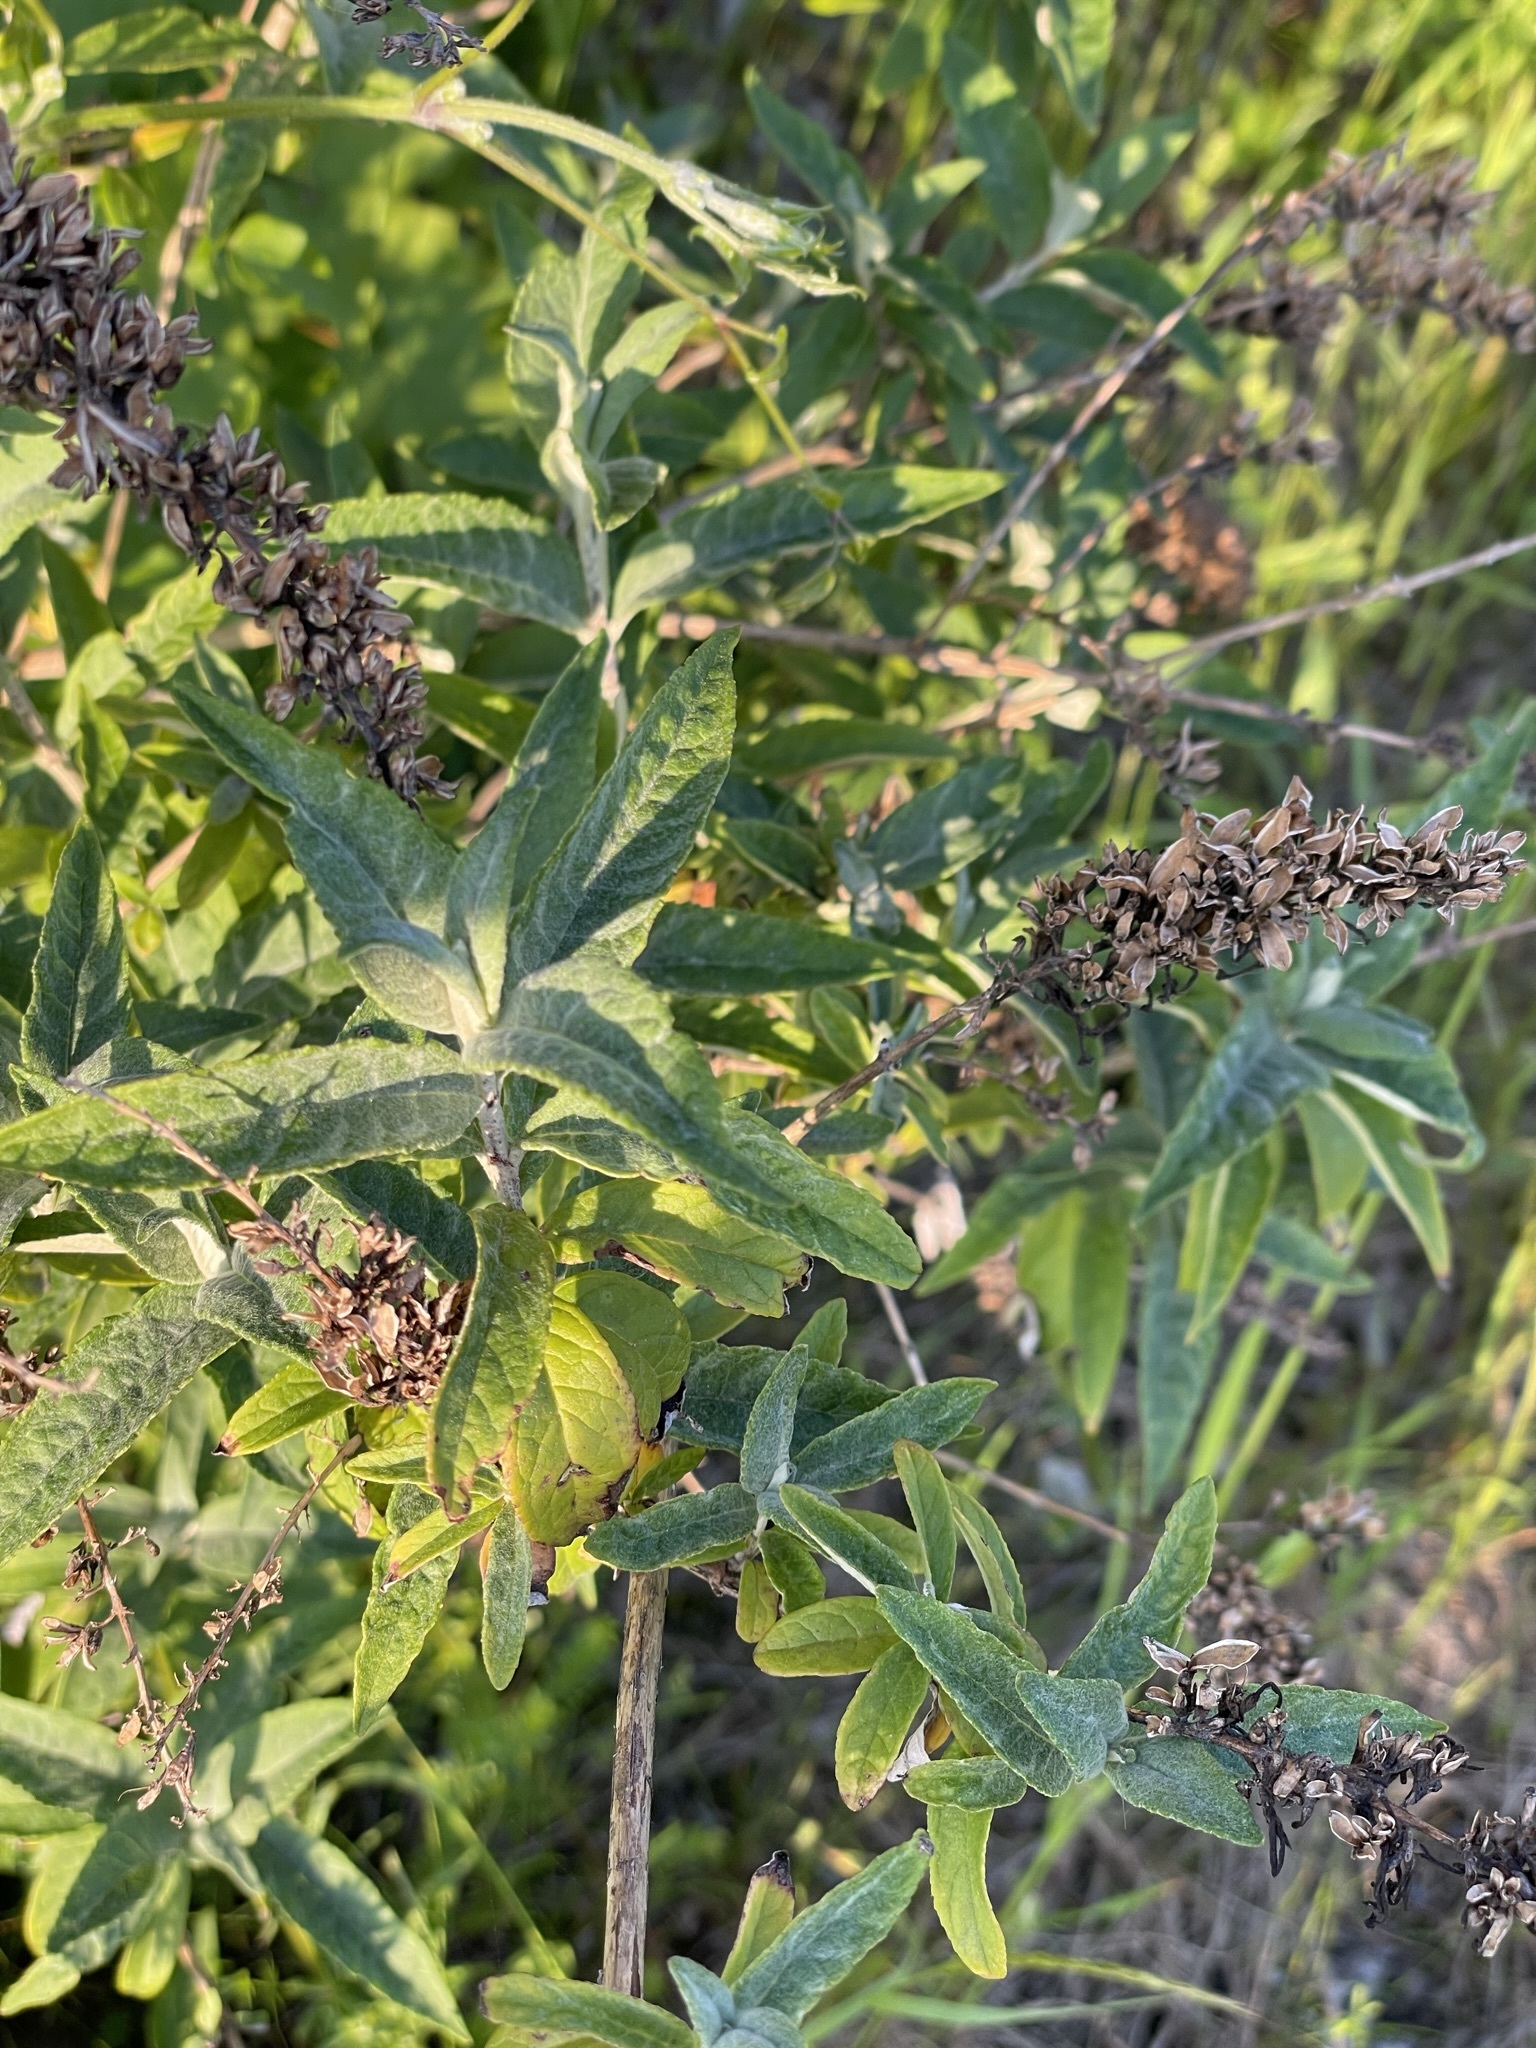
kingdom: Plantae
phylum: Tracheophyta
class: Magnoliopsida
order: Lamiales
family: Scrophulariaceae
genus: Buddleja
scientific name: Buddleja davidii
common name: Butterfly-bush
